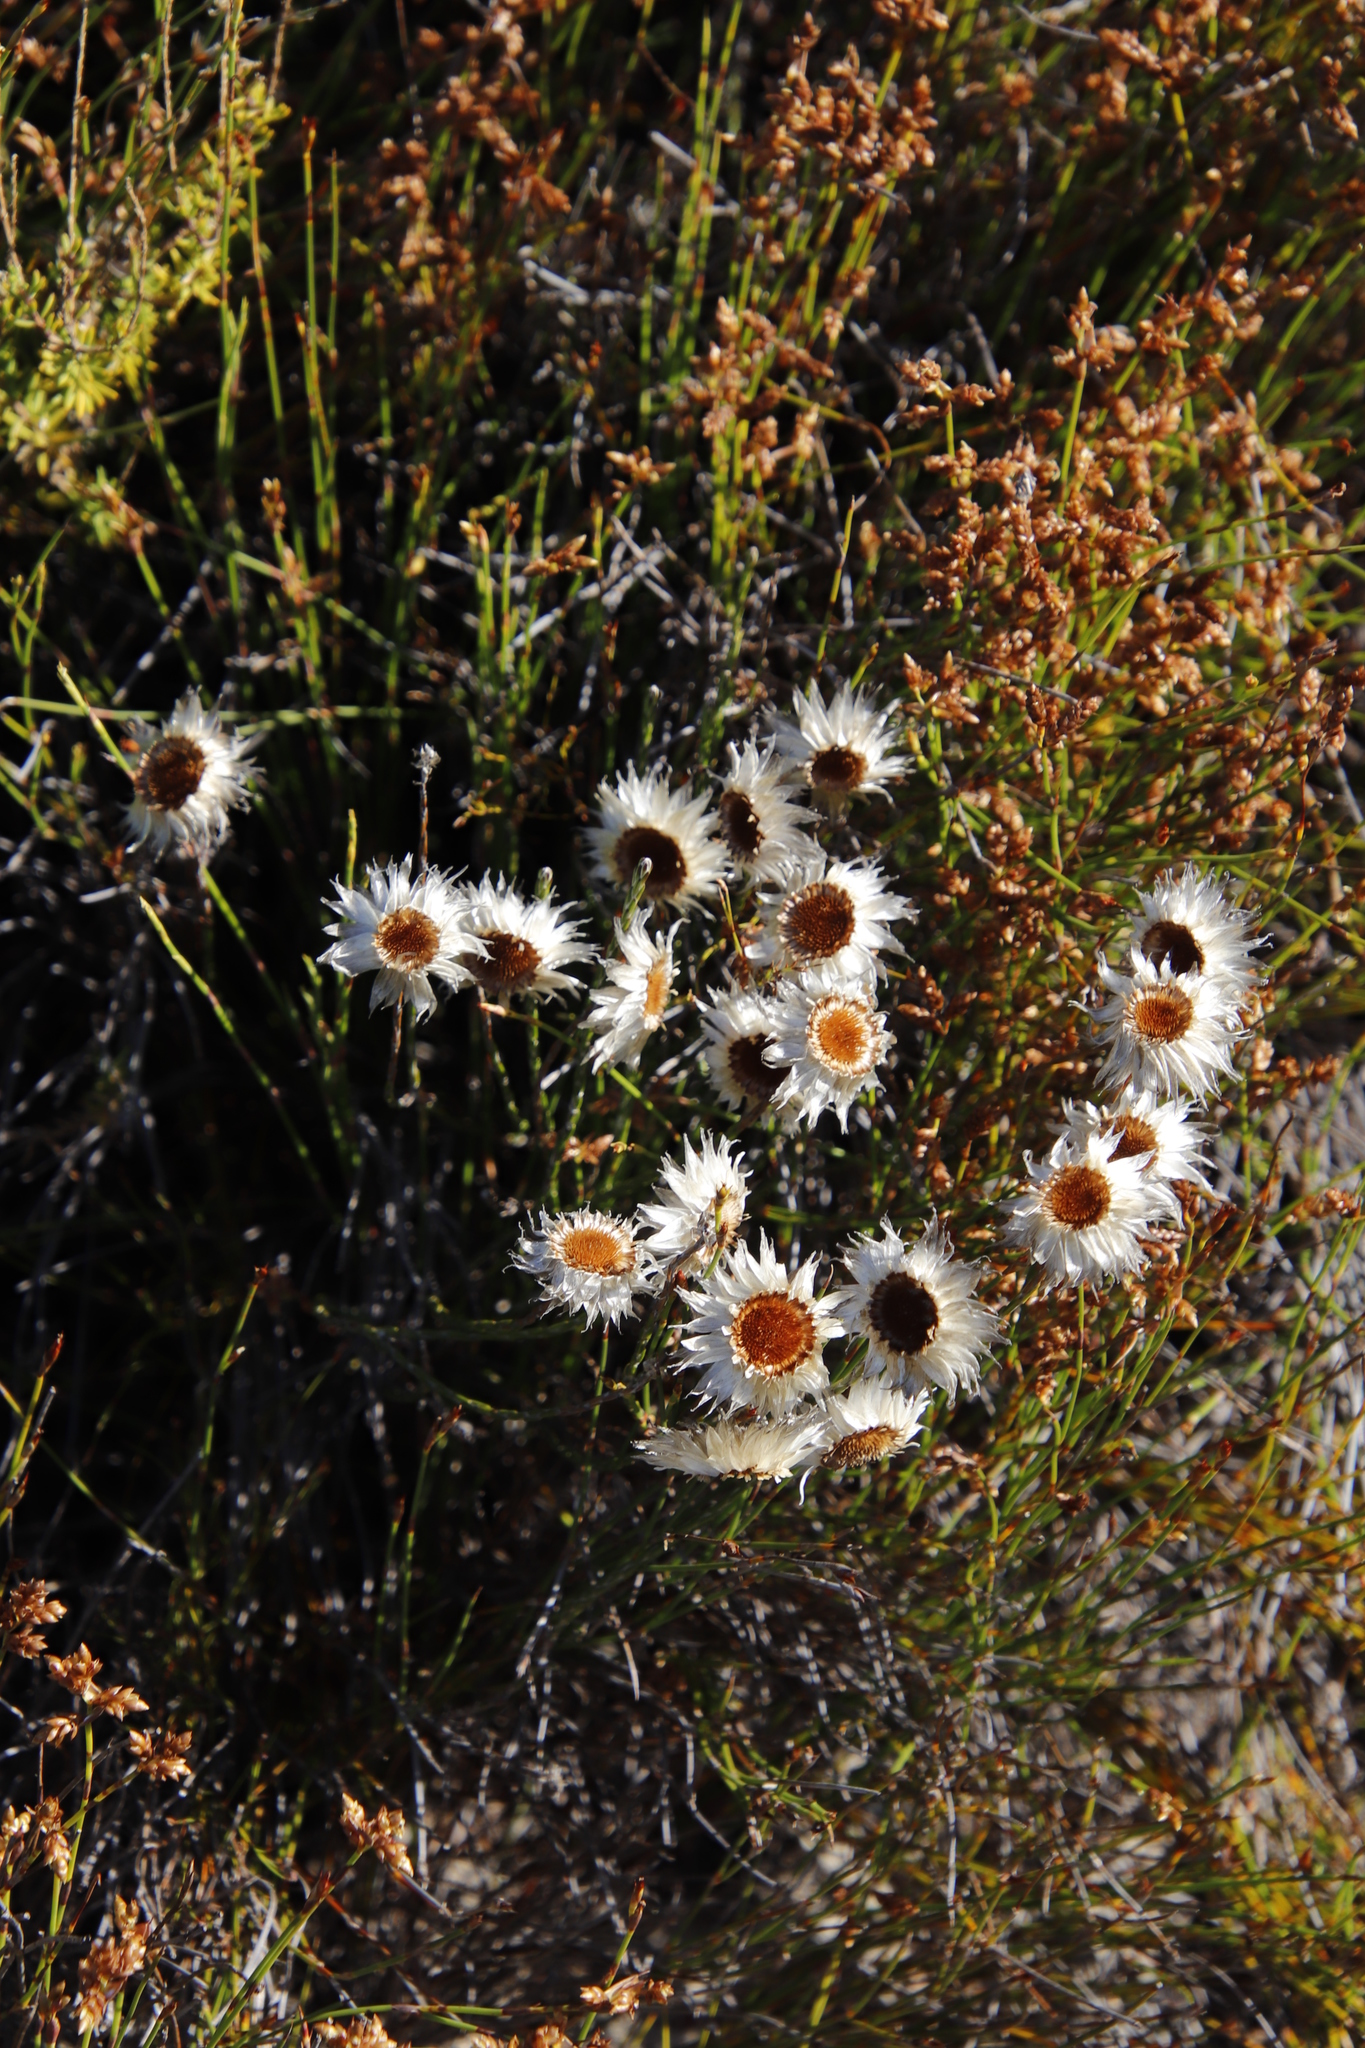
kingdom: Plantae
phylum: Tracheophyta
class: Magnoliopsida
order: Asterales
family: Asteraceae
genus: Edmondia
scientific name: Edmondia sesamoides
